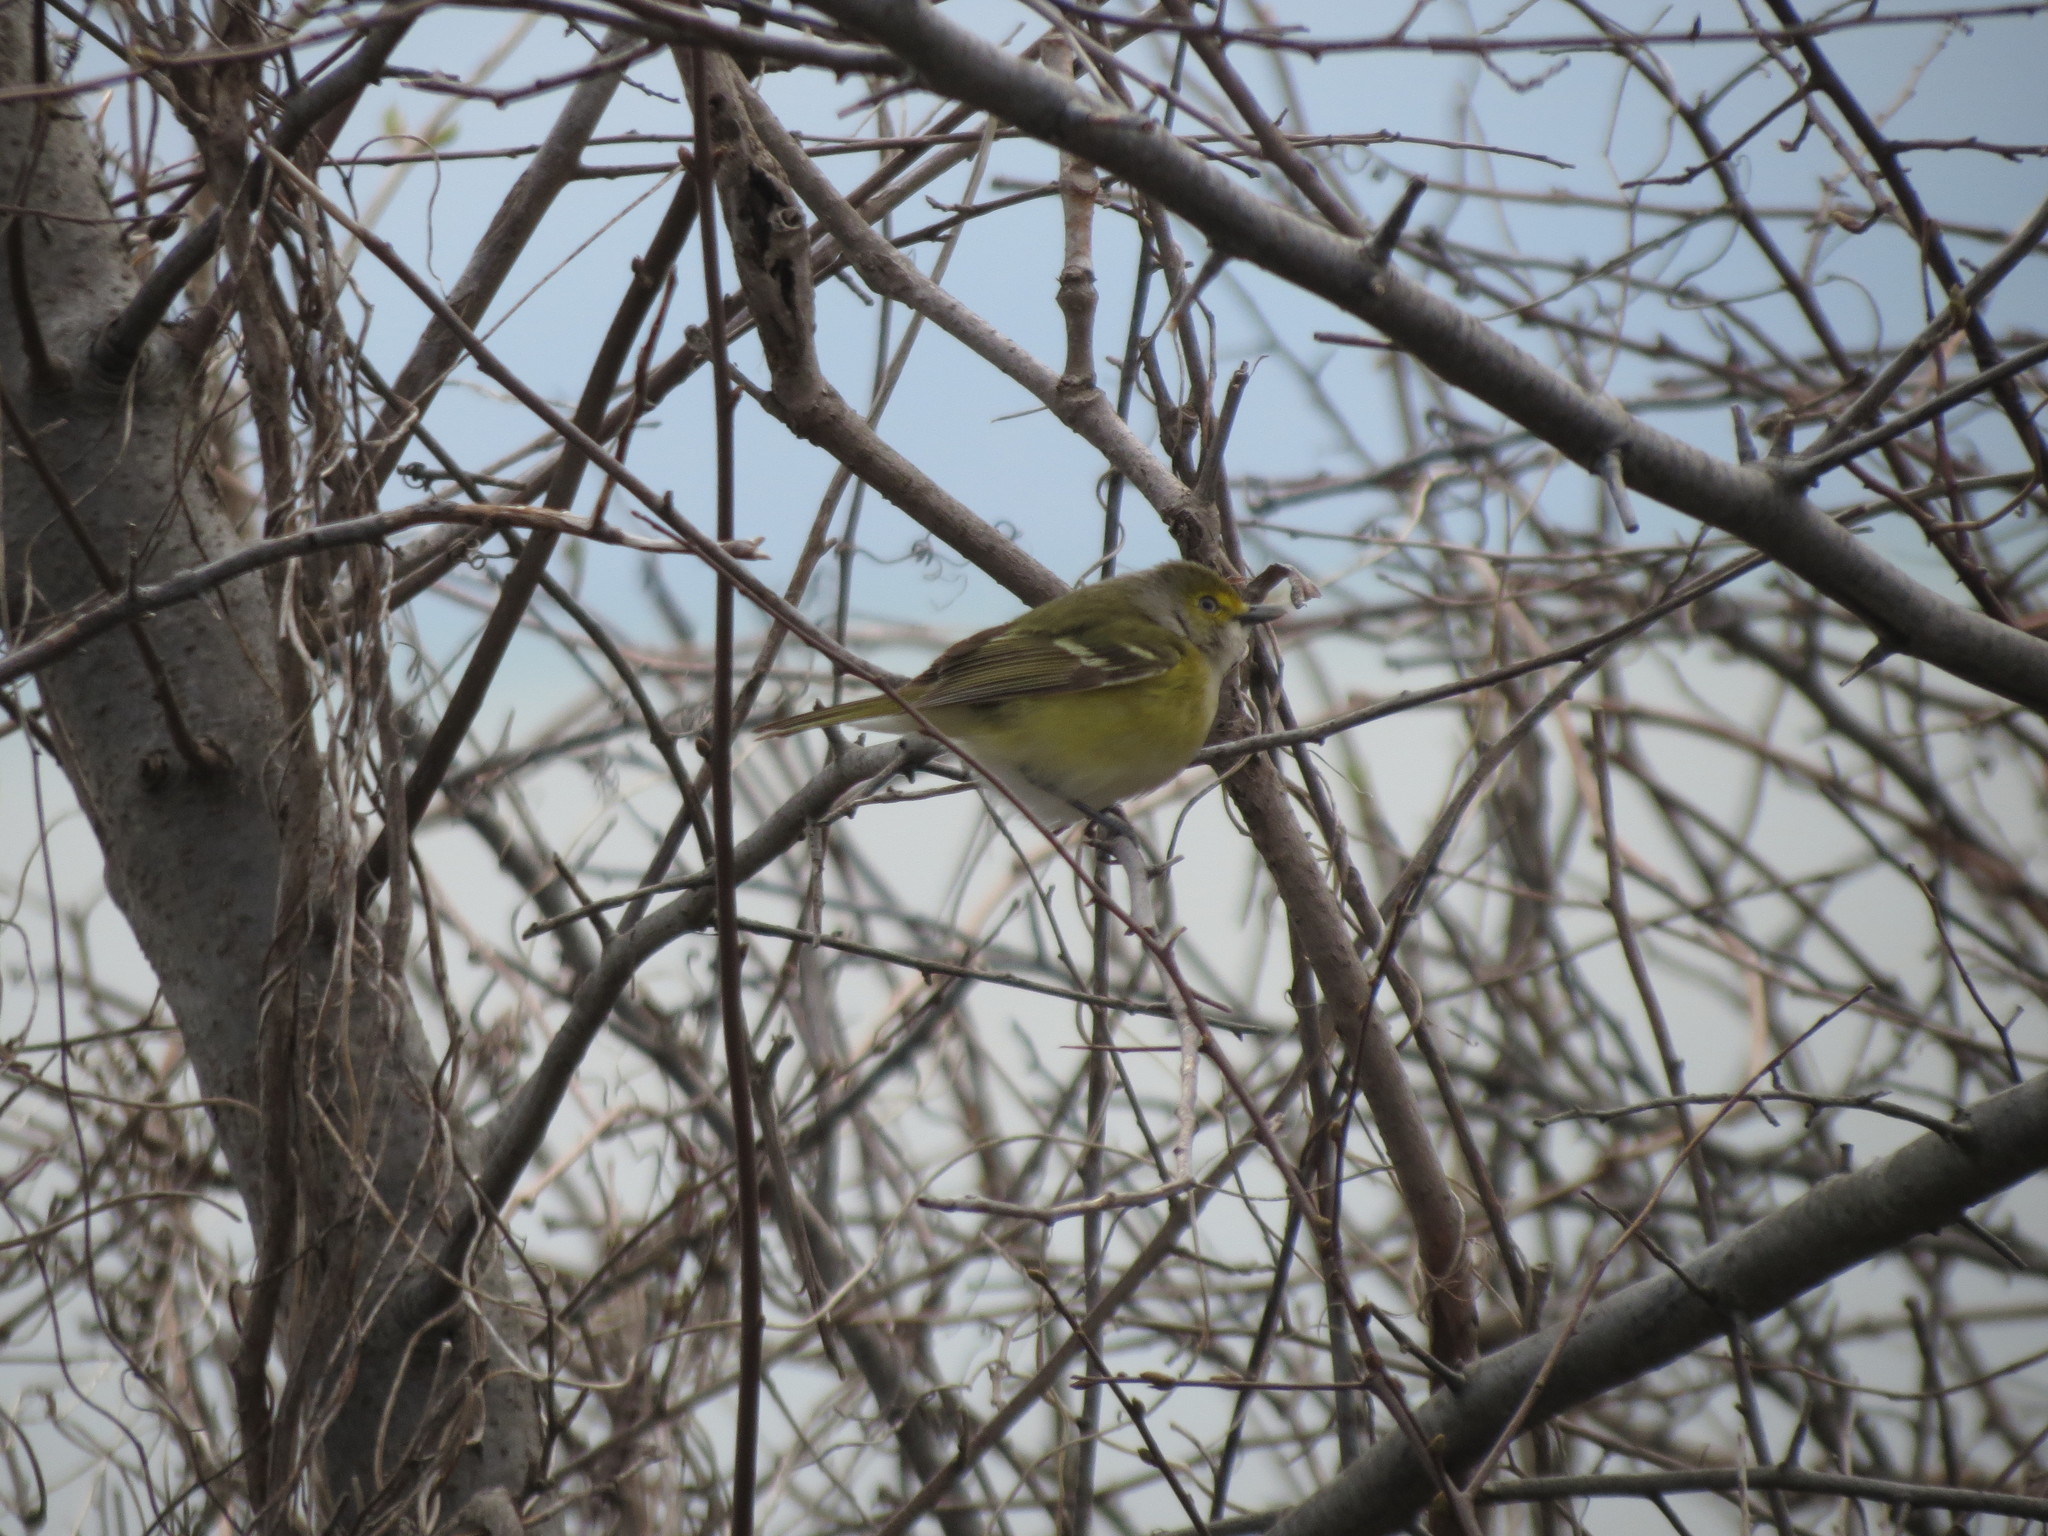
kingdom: Animalia
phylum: Chordata
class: Aves
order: Passeriformes
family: Vireonidae
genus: Vireo
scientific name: Vireo griseus
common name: White-eyed vireo
